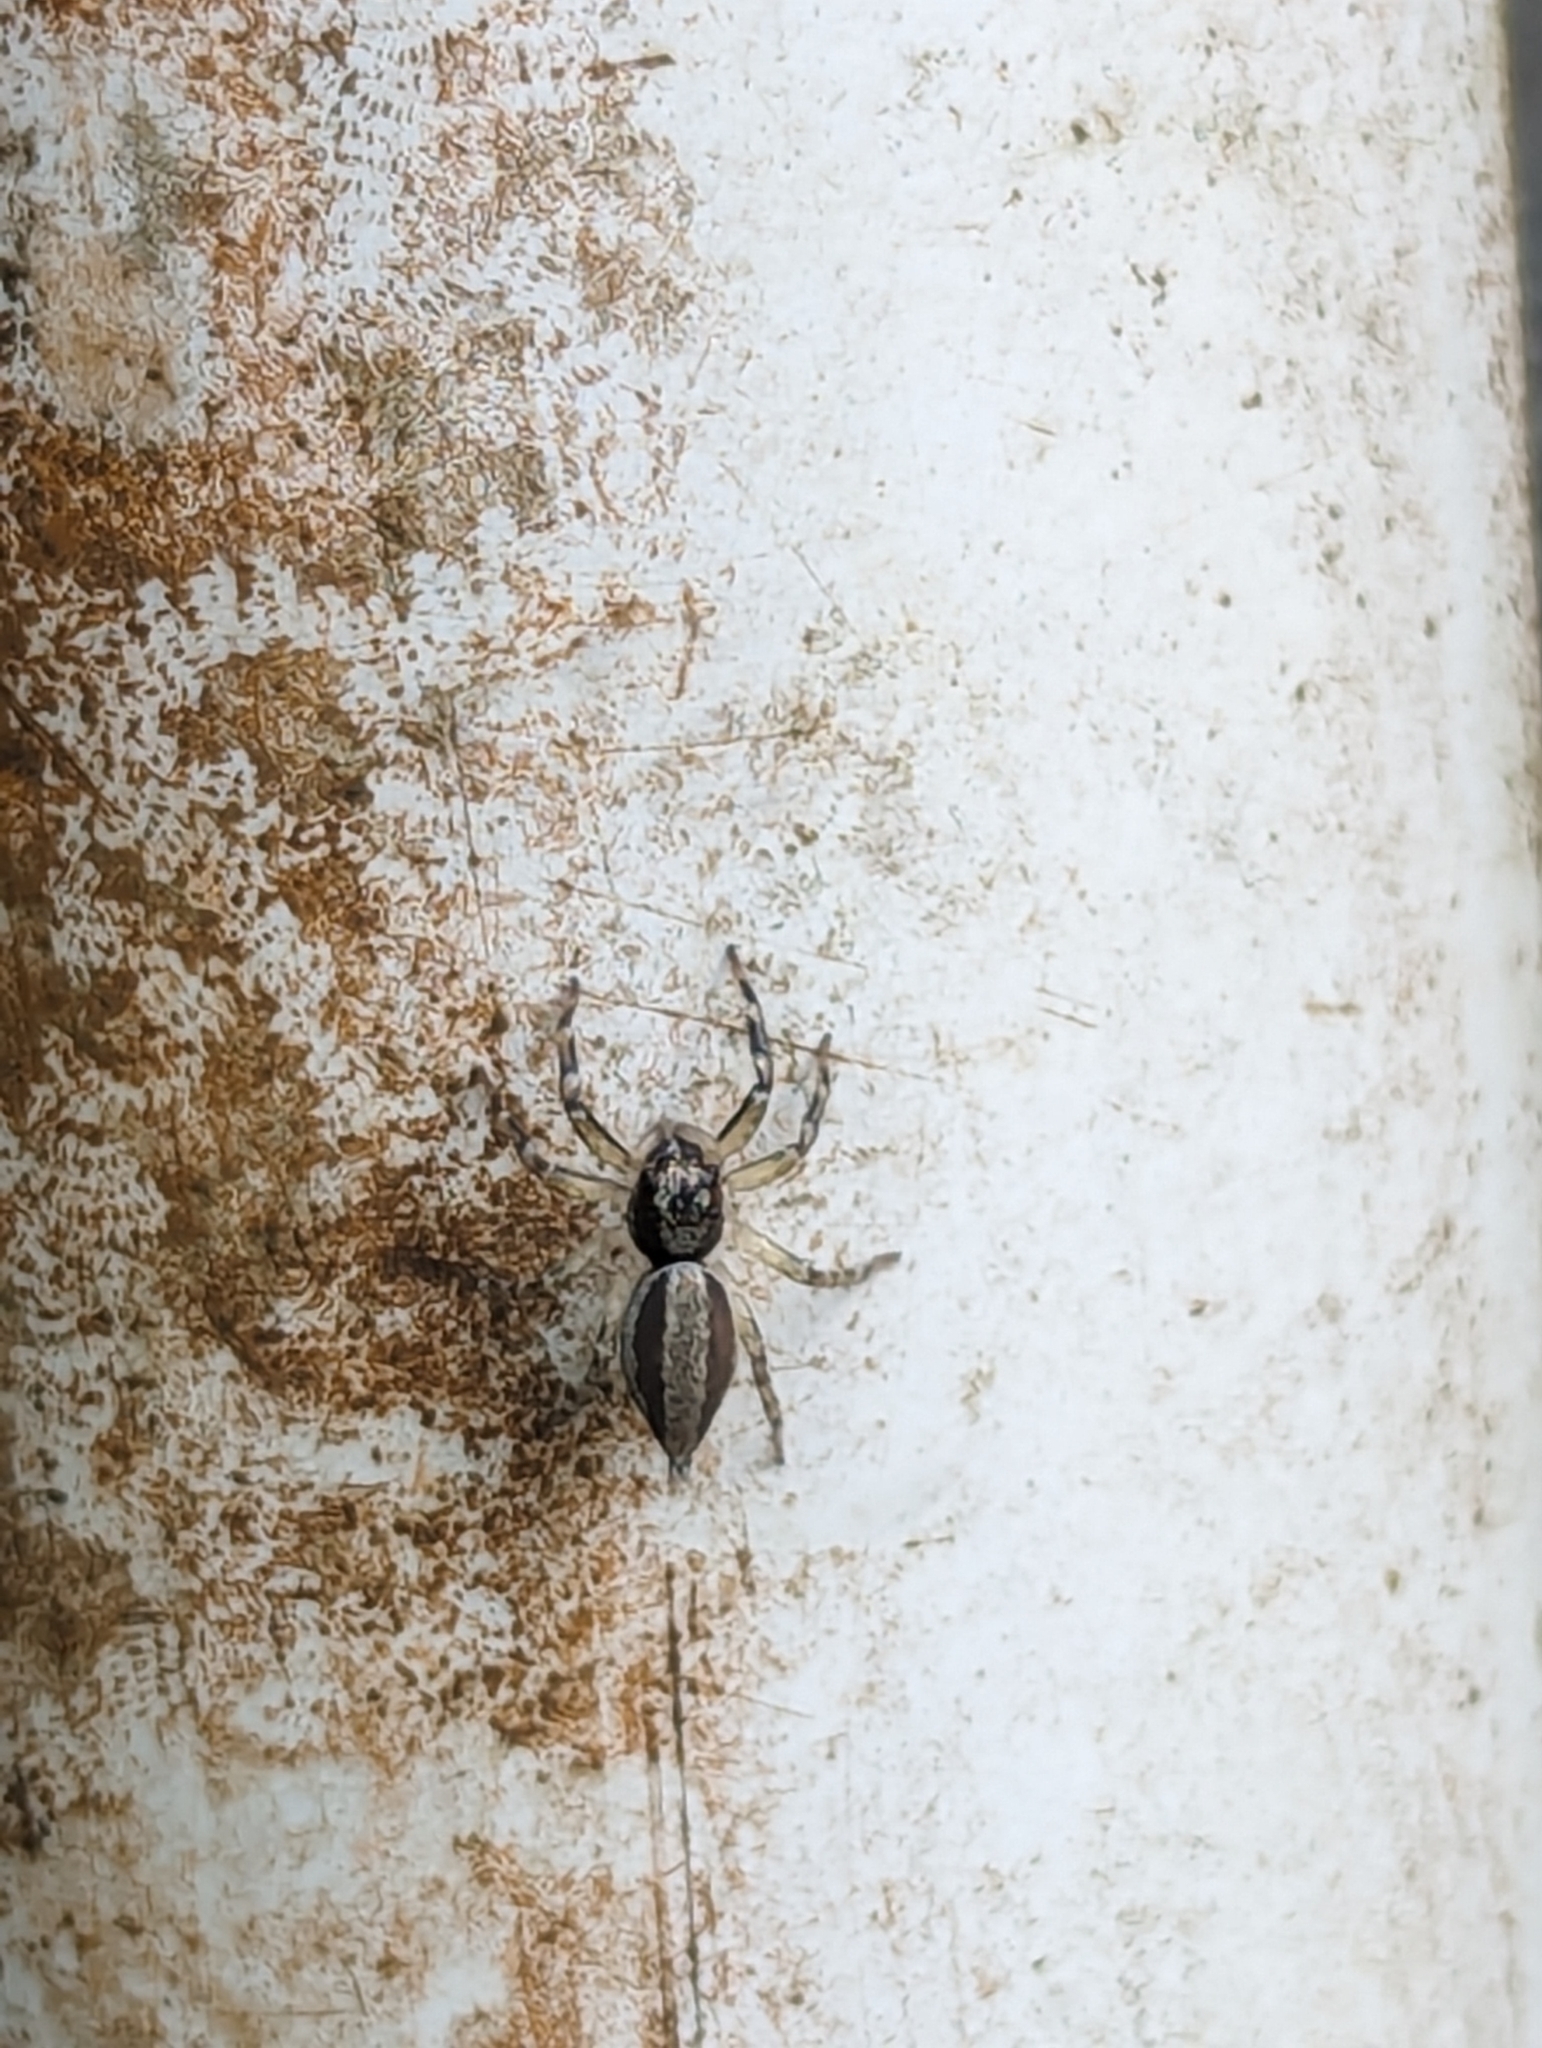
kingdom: Animalia
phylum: Arthropoda
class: Arachnida
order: Araneae
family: Salticidae
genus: Zenodorus
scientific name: Zenodorus swiftorum
